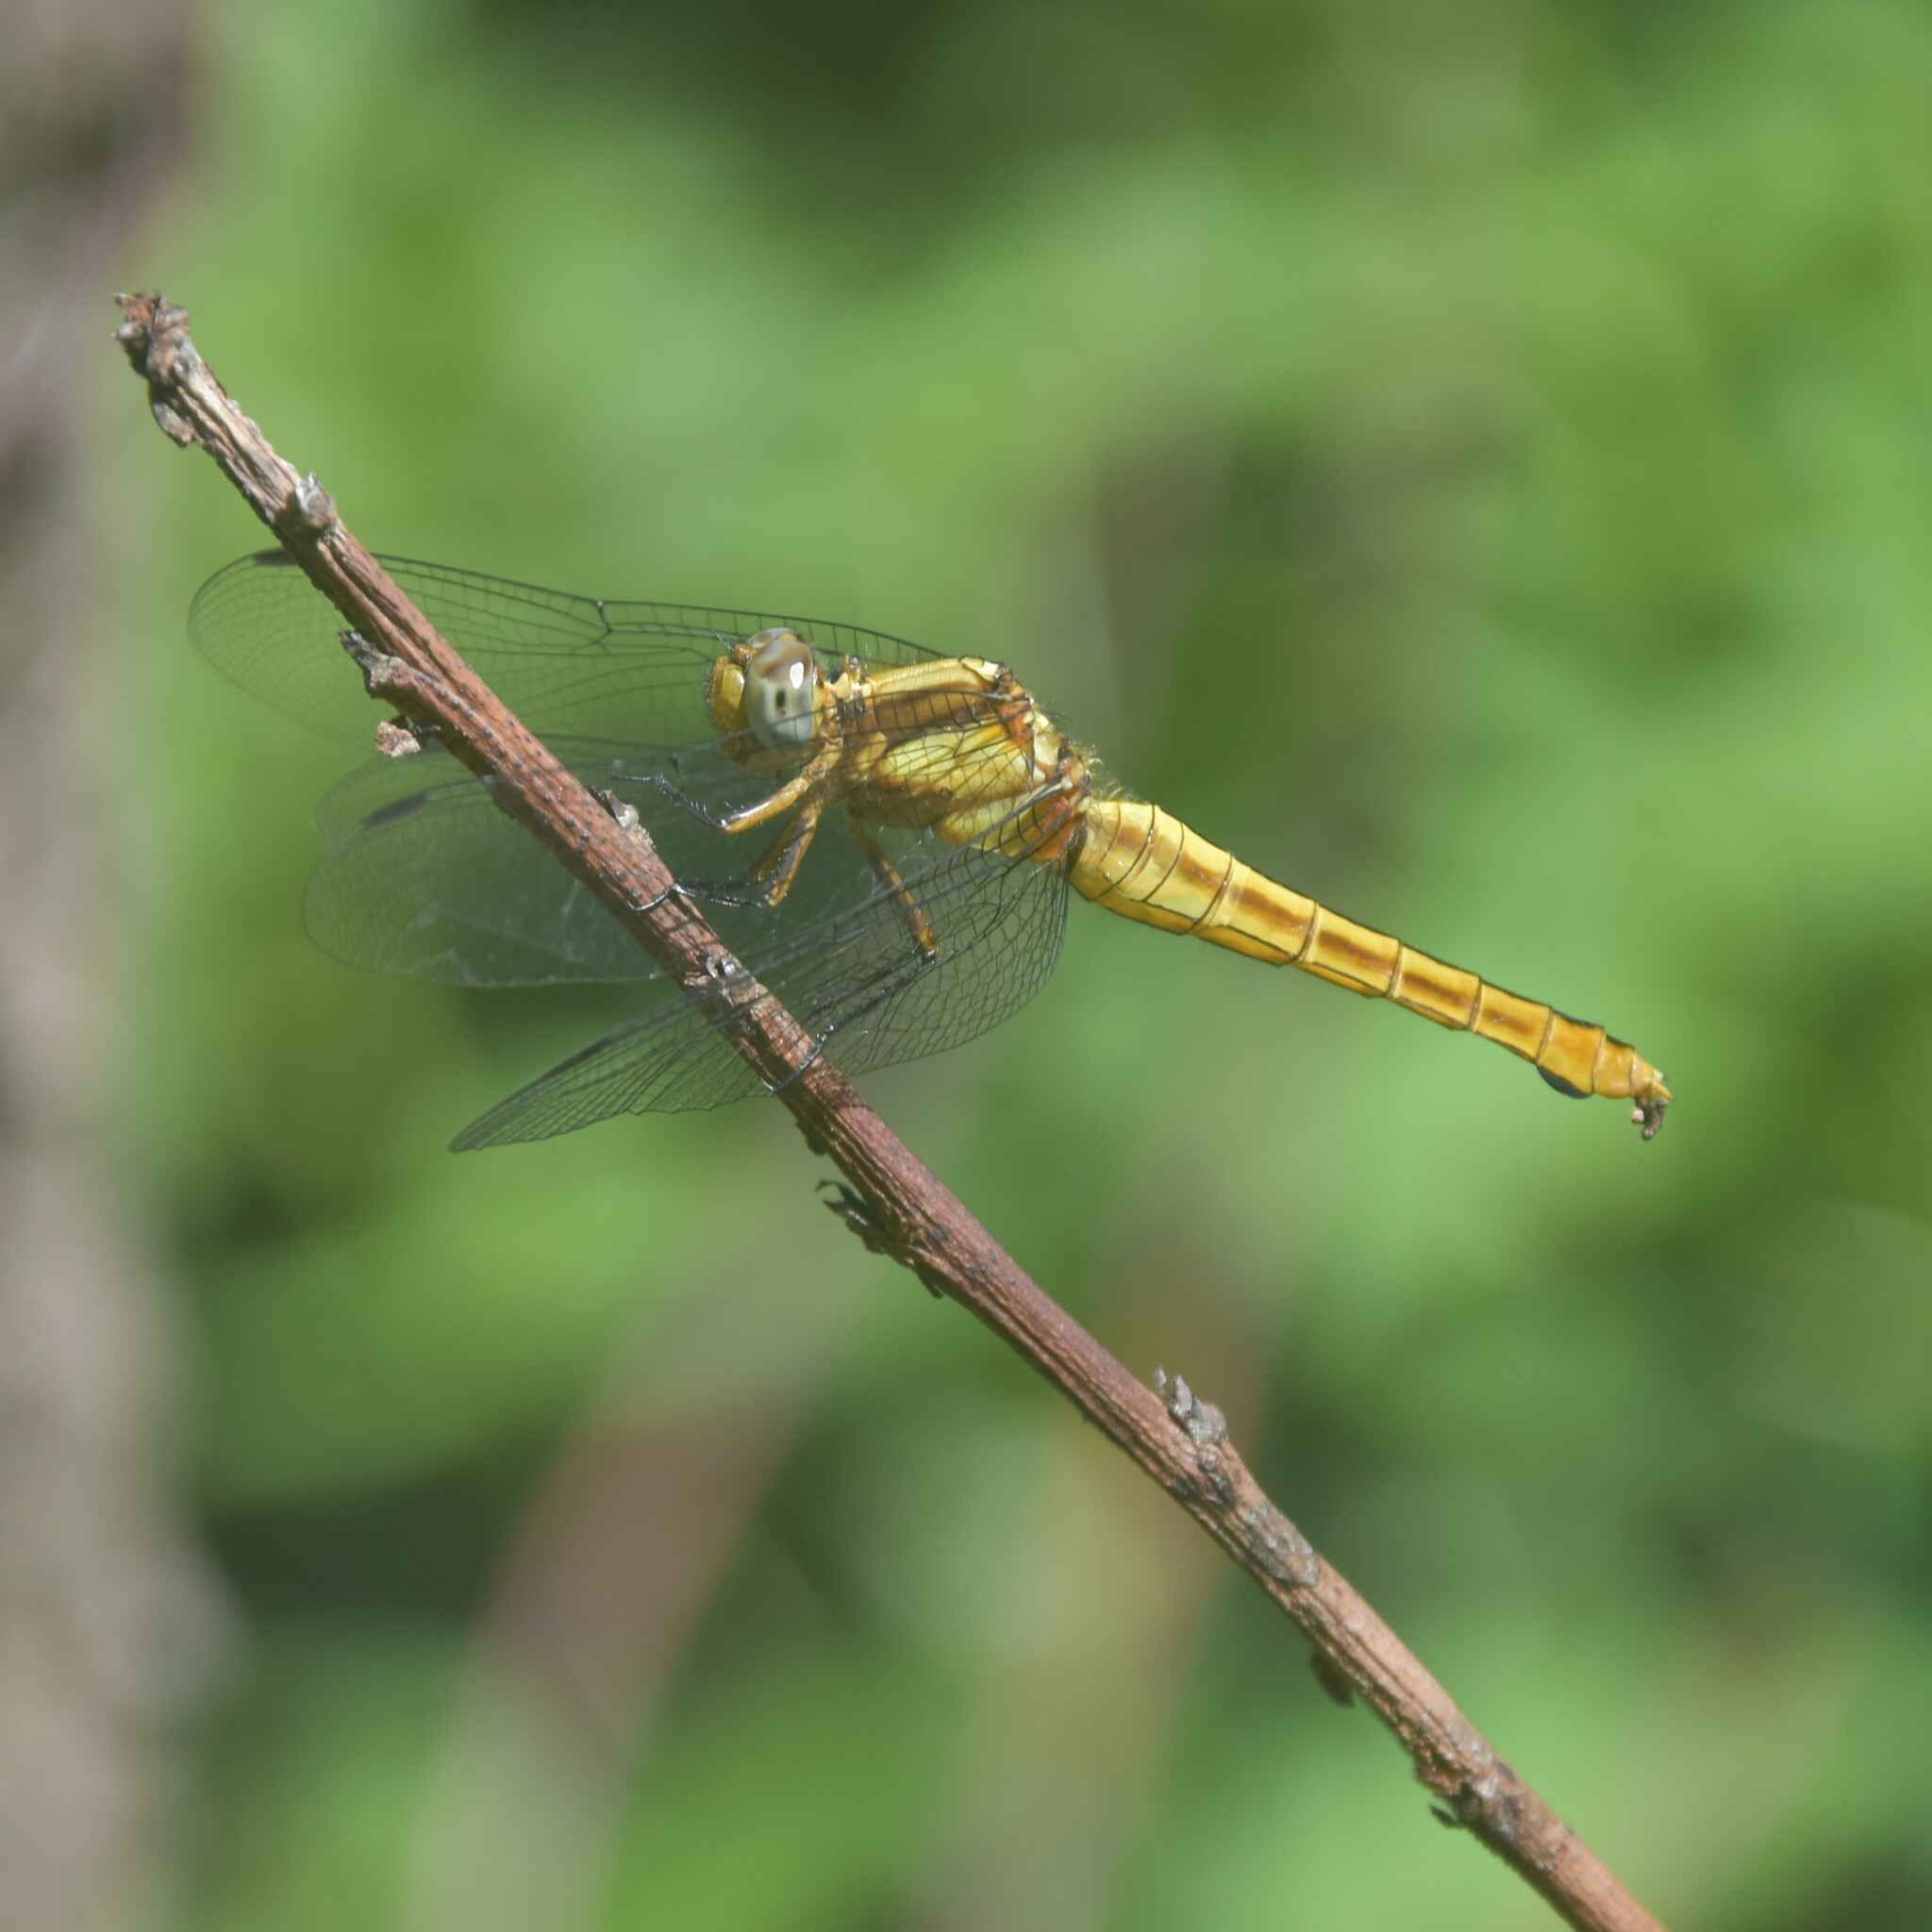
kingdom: Animalia
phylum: Arthropoda
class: Insecta
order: Odonata
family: Libellulidae
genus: Orthetrum
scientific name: Orthetrum pruinosum
